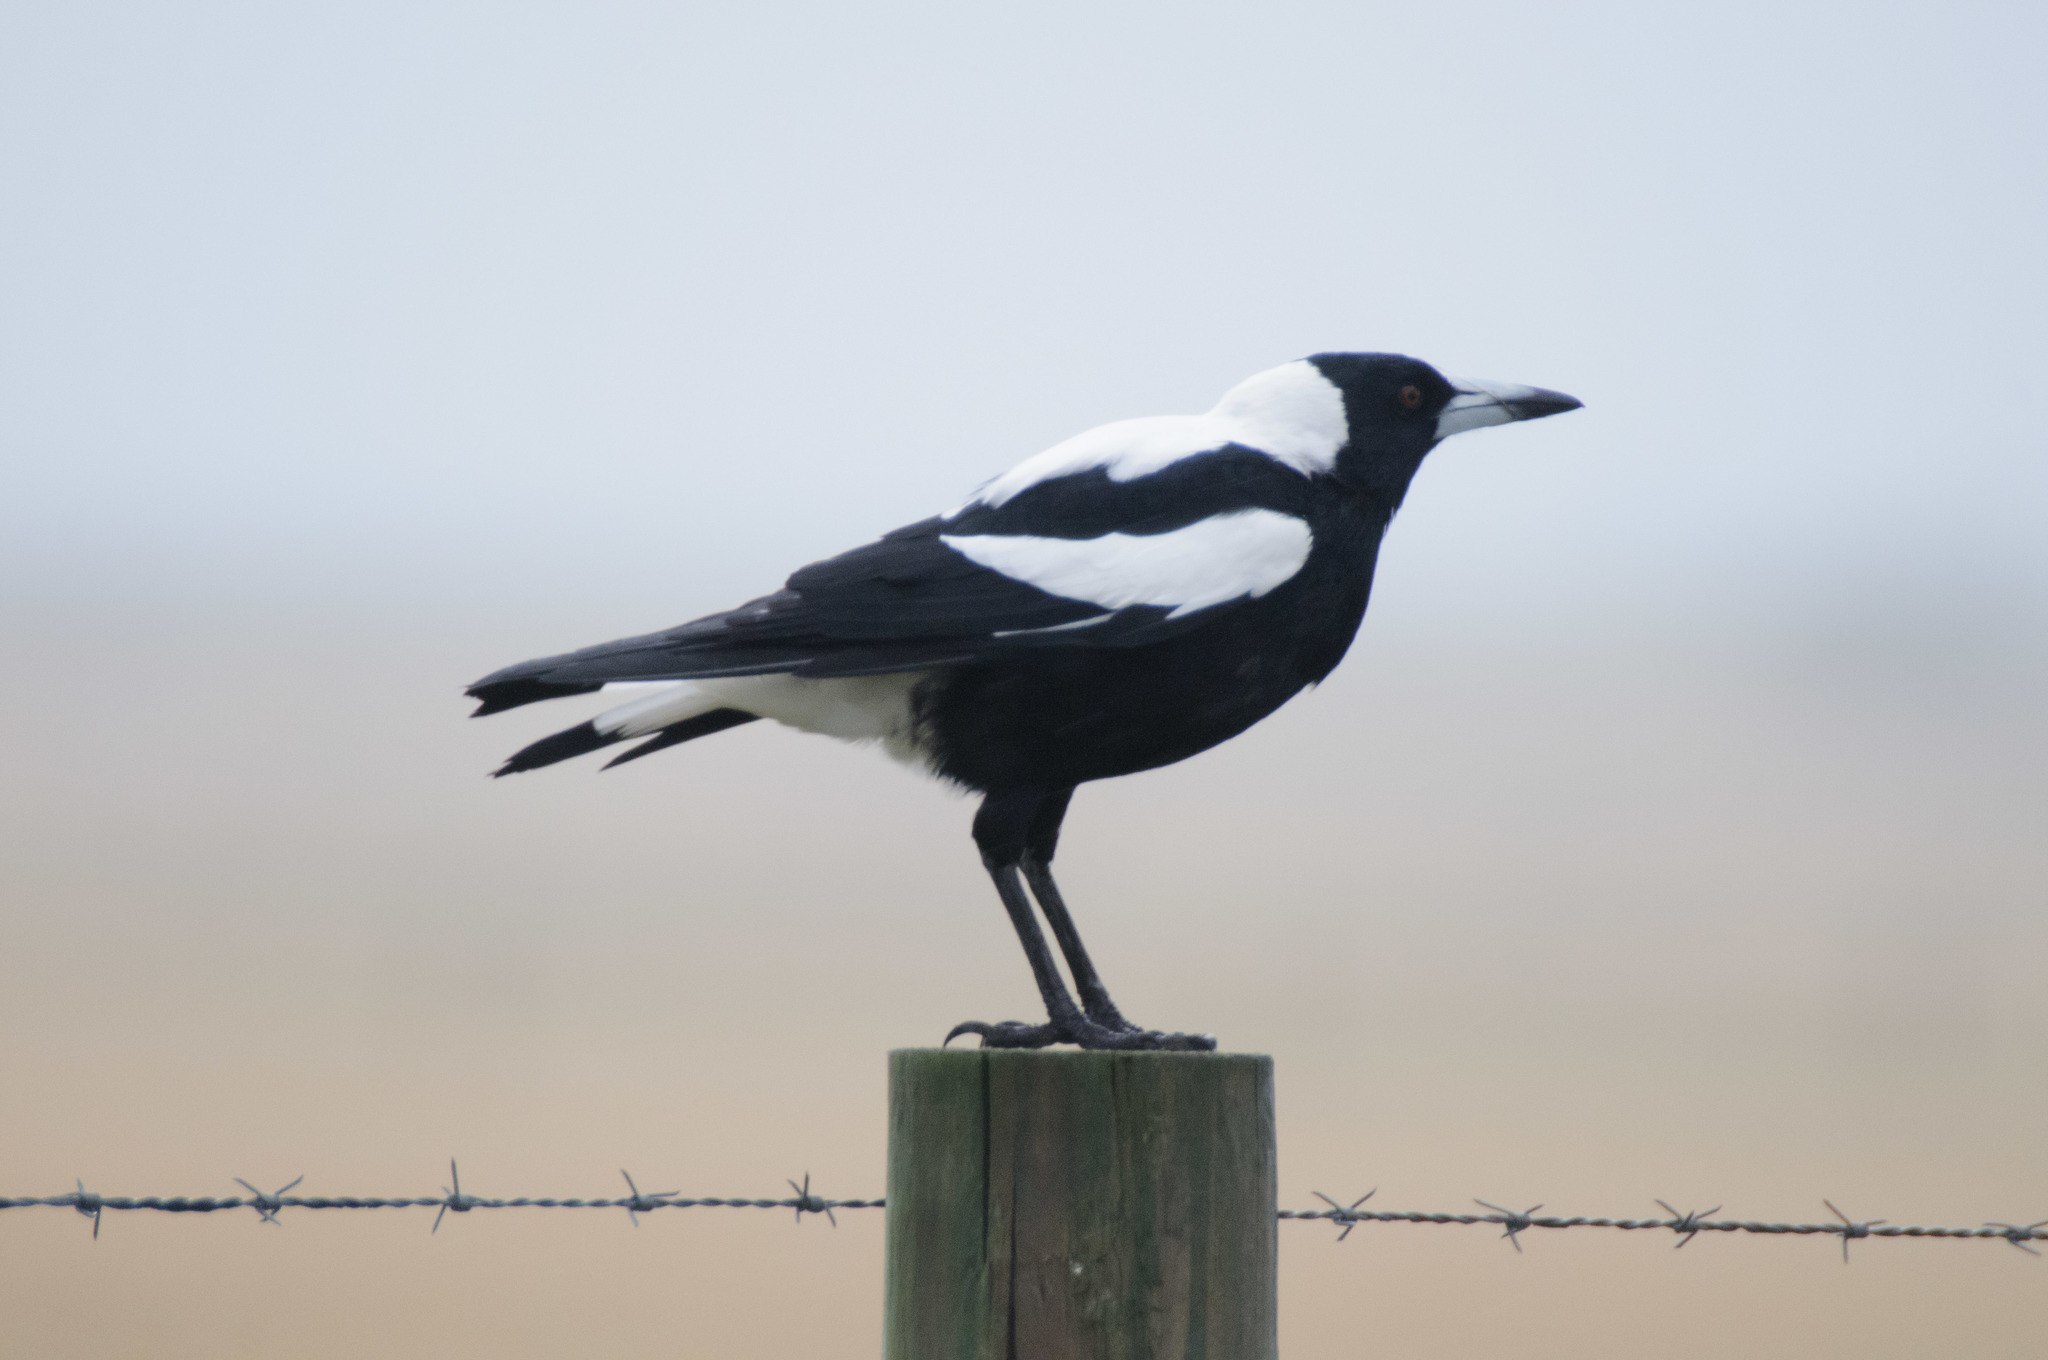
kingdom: Animalia
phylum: Chordata
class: Aves
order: Passeriformes
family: Cracticidae
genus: Gymnorhina
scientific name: Gymnorhina tibicen
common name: Australian magpie
